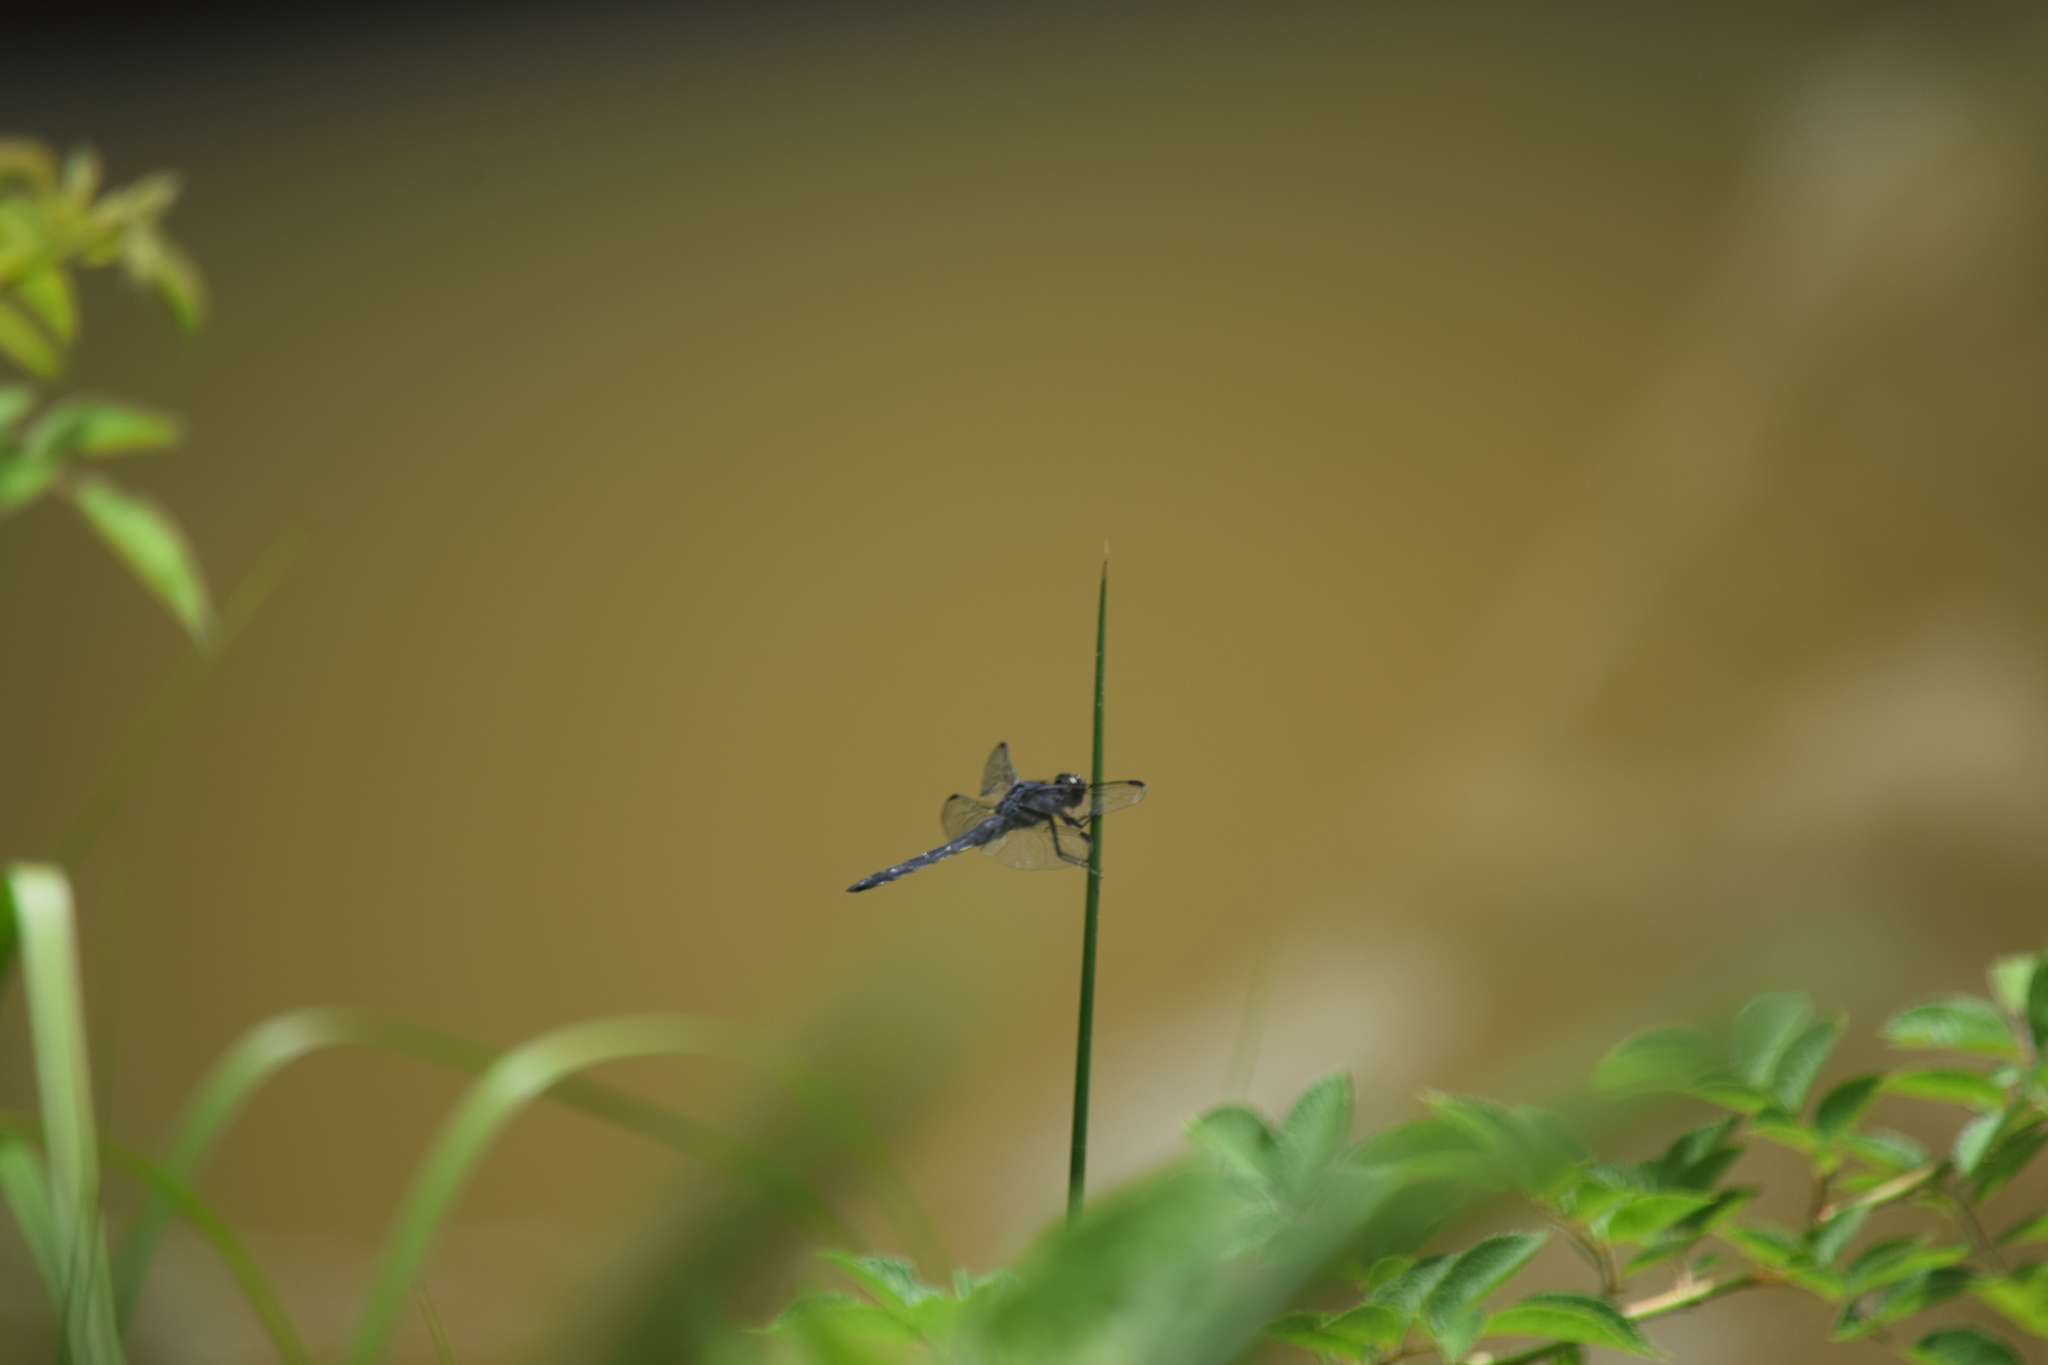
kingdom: Animalia
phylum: Arthropoda
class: Insecta
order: Odonata
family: Libellulidae
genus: Libellula
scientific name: Libellula incesta
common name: Slaty skimmer
